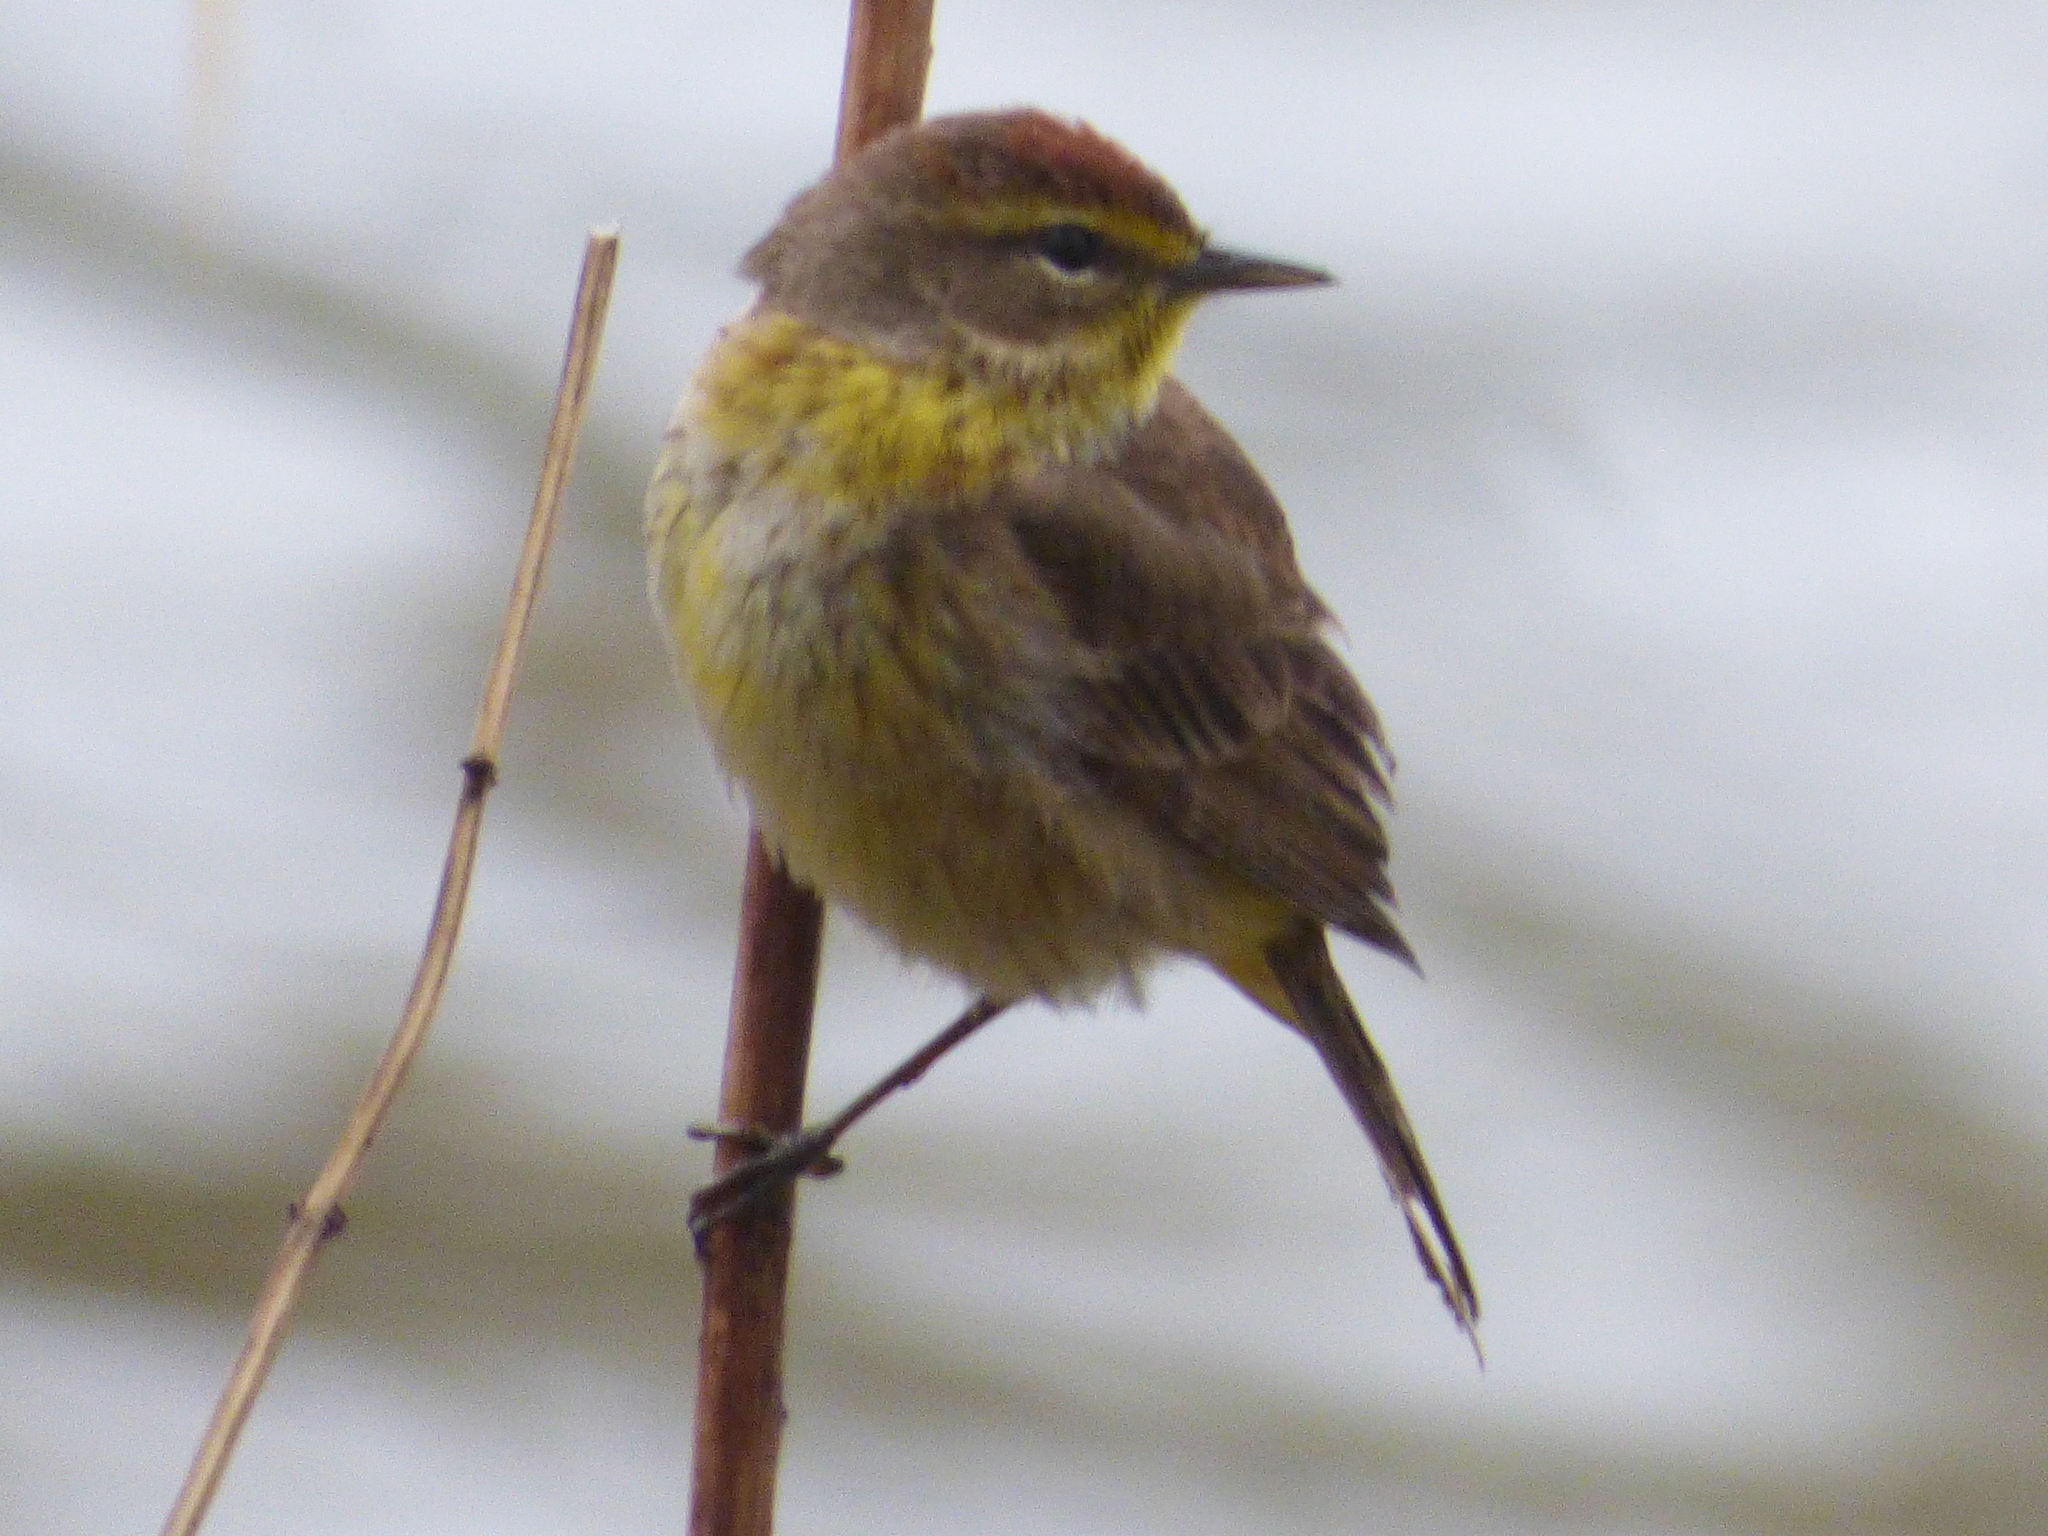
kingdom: Animalia
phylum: Chordata
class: Aves
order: Passeriformes
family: Parulidae
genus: Setophaga
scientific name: Setophaga palmarum
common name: Palm warbler
